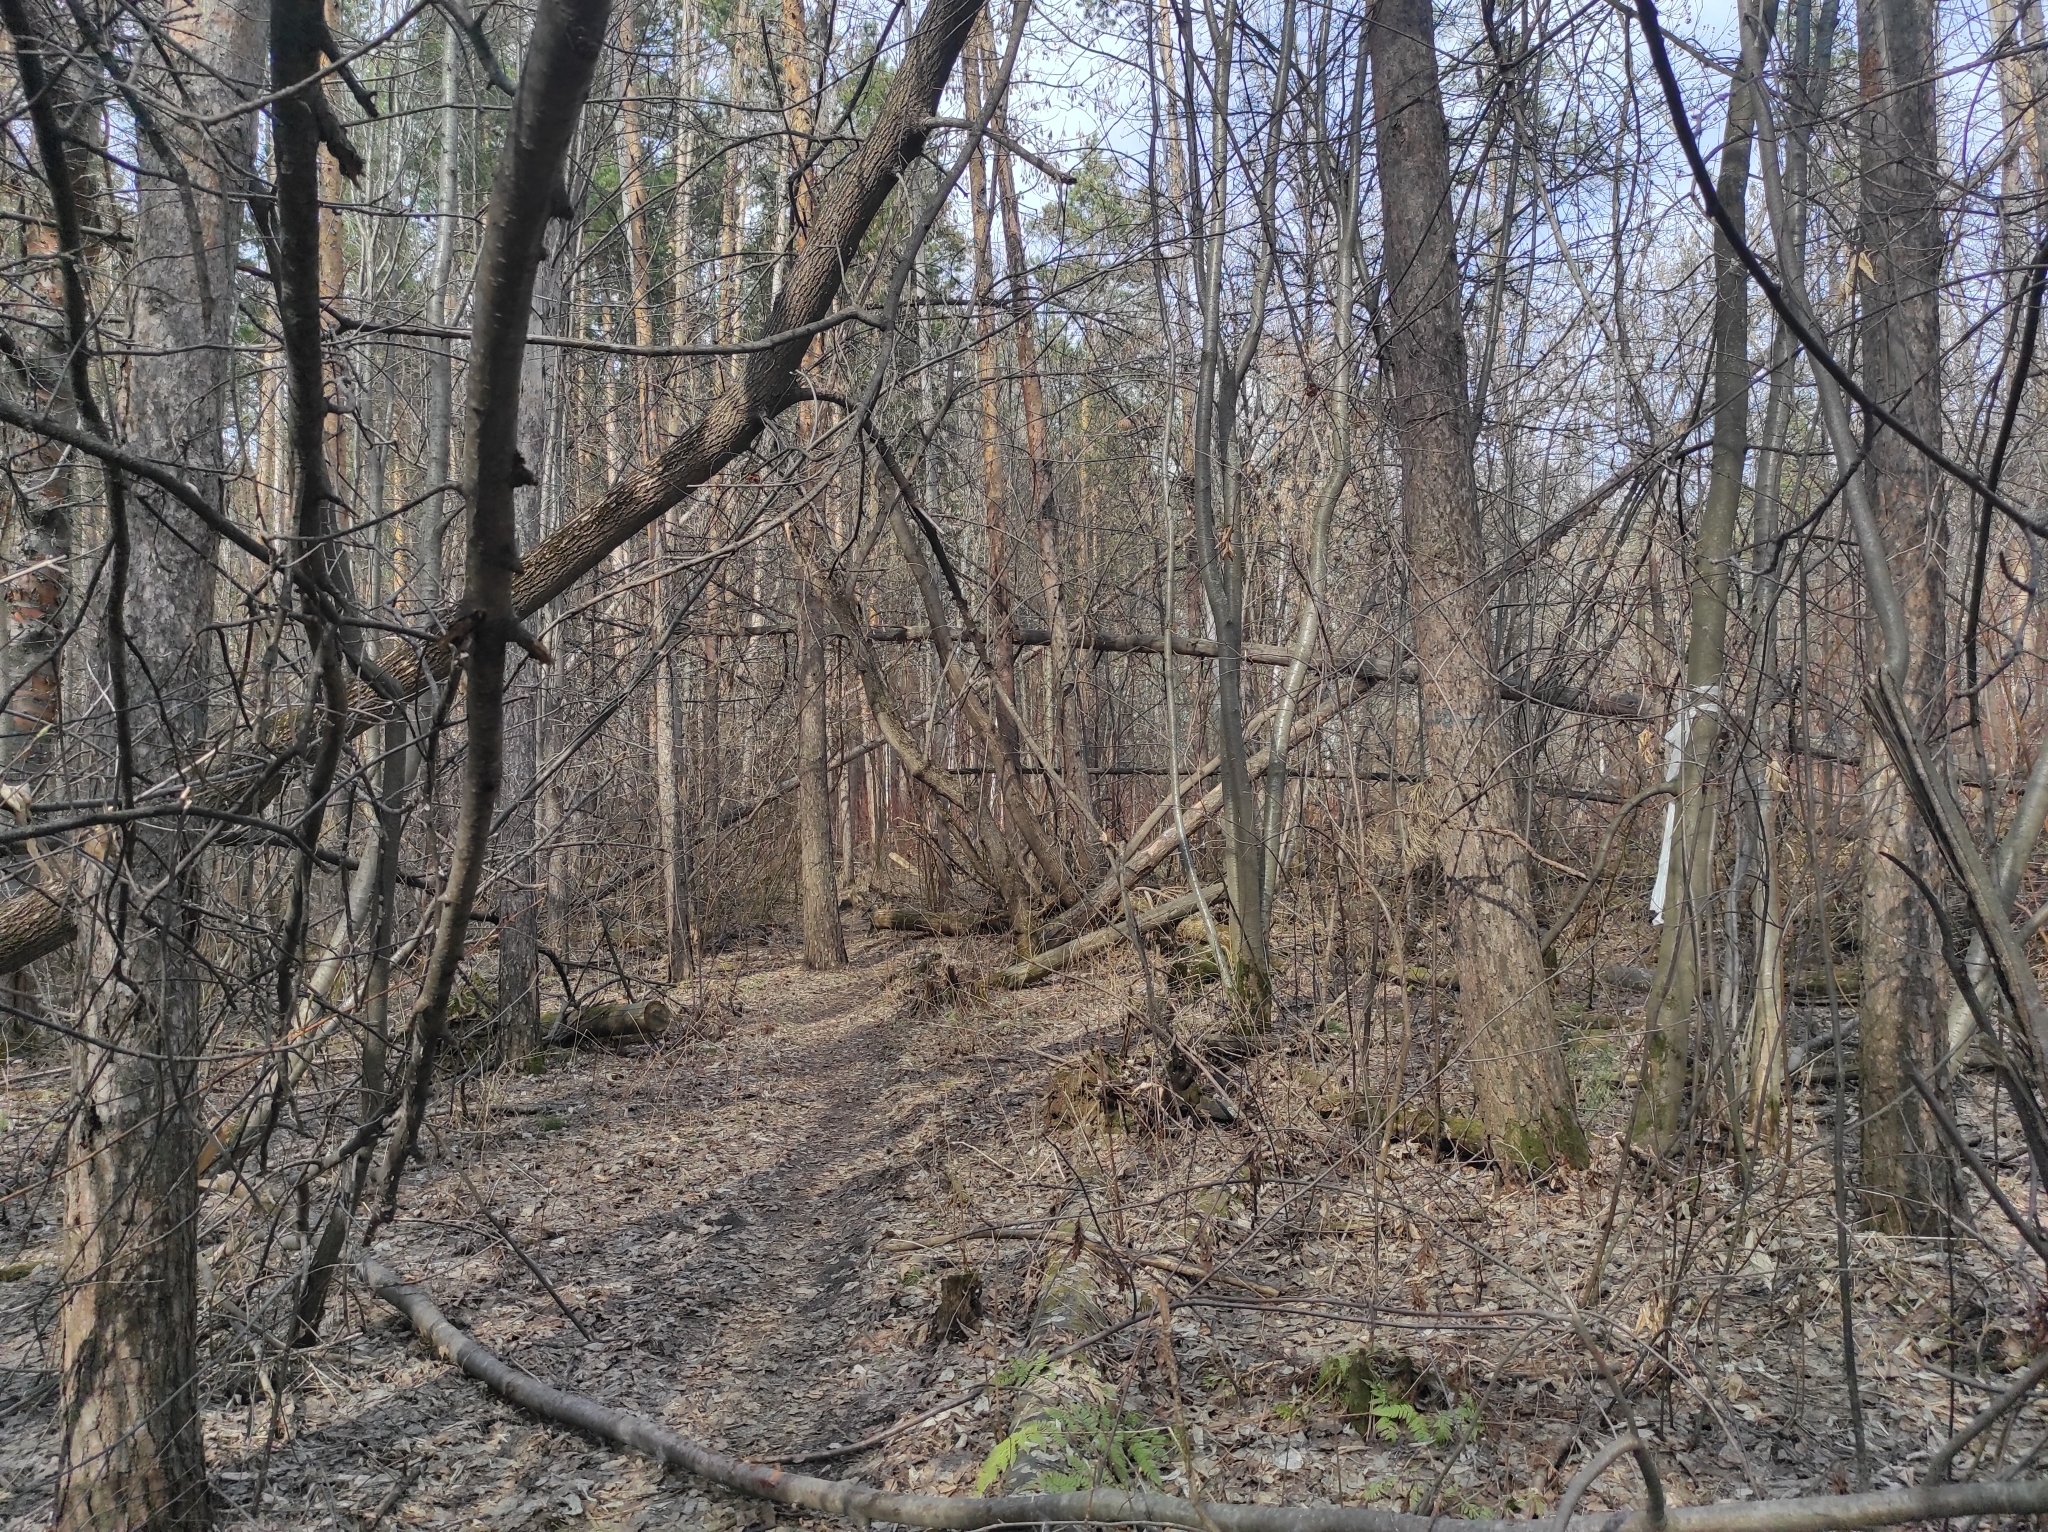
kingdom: Plantae
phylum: Tracheophyta
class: Magnoliopsida
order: Sapindales
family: Sapindaceae
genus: Acer
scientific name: Acer negundo
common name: Ashleaf maple
